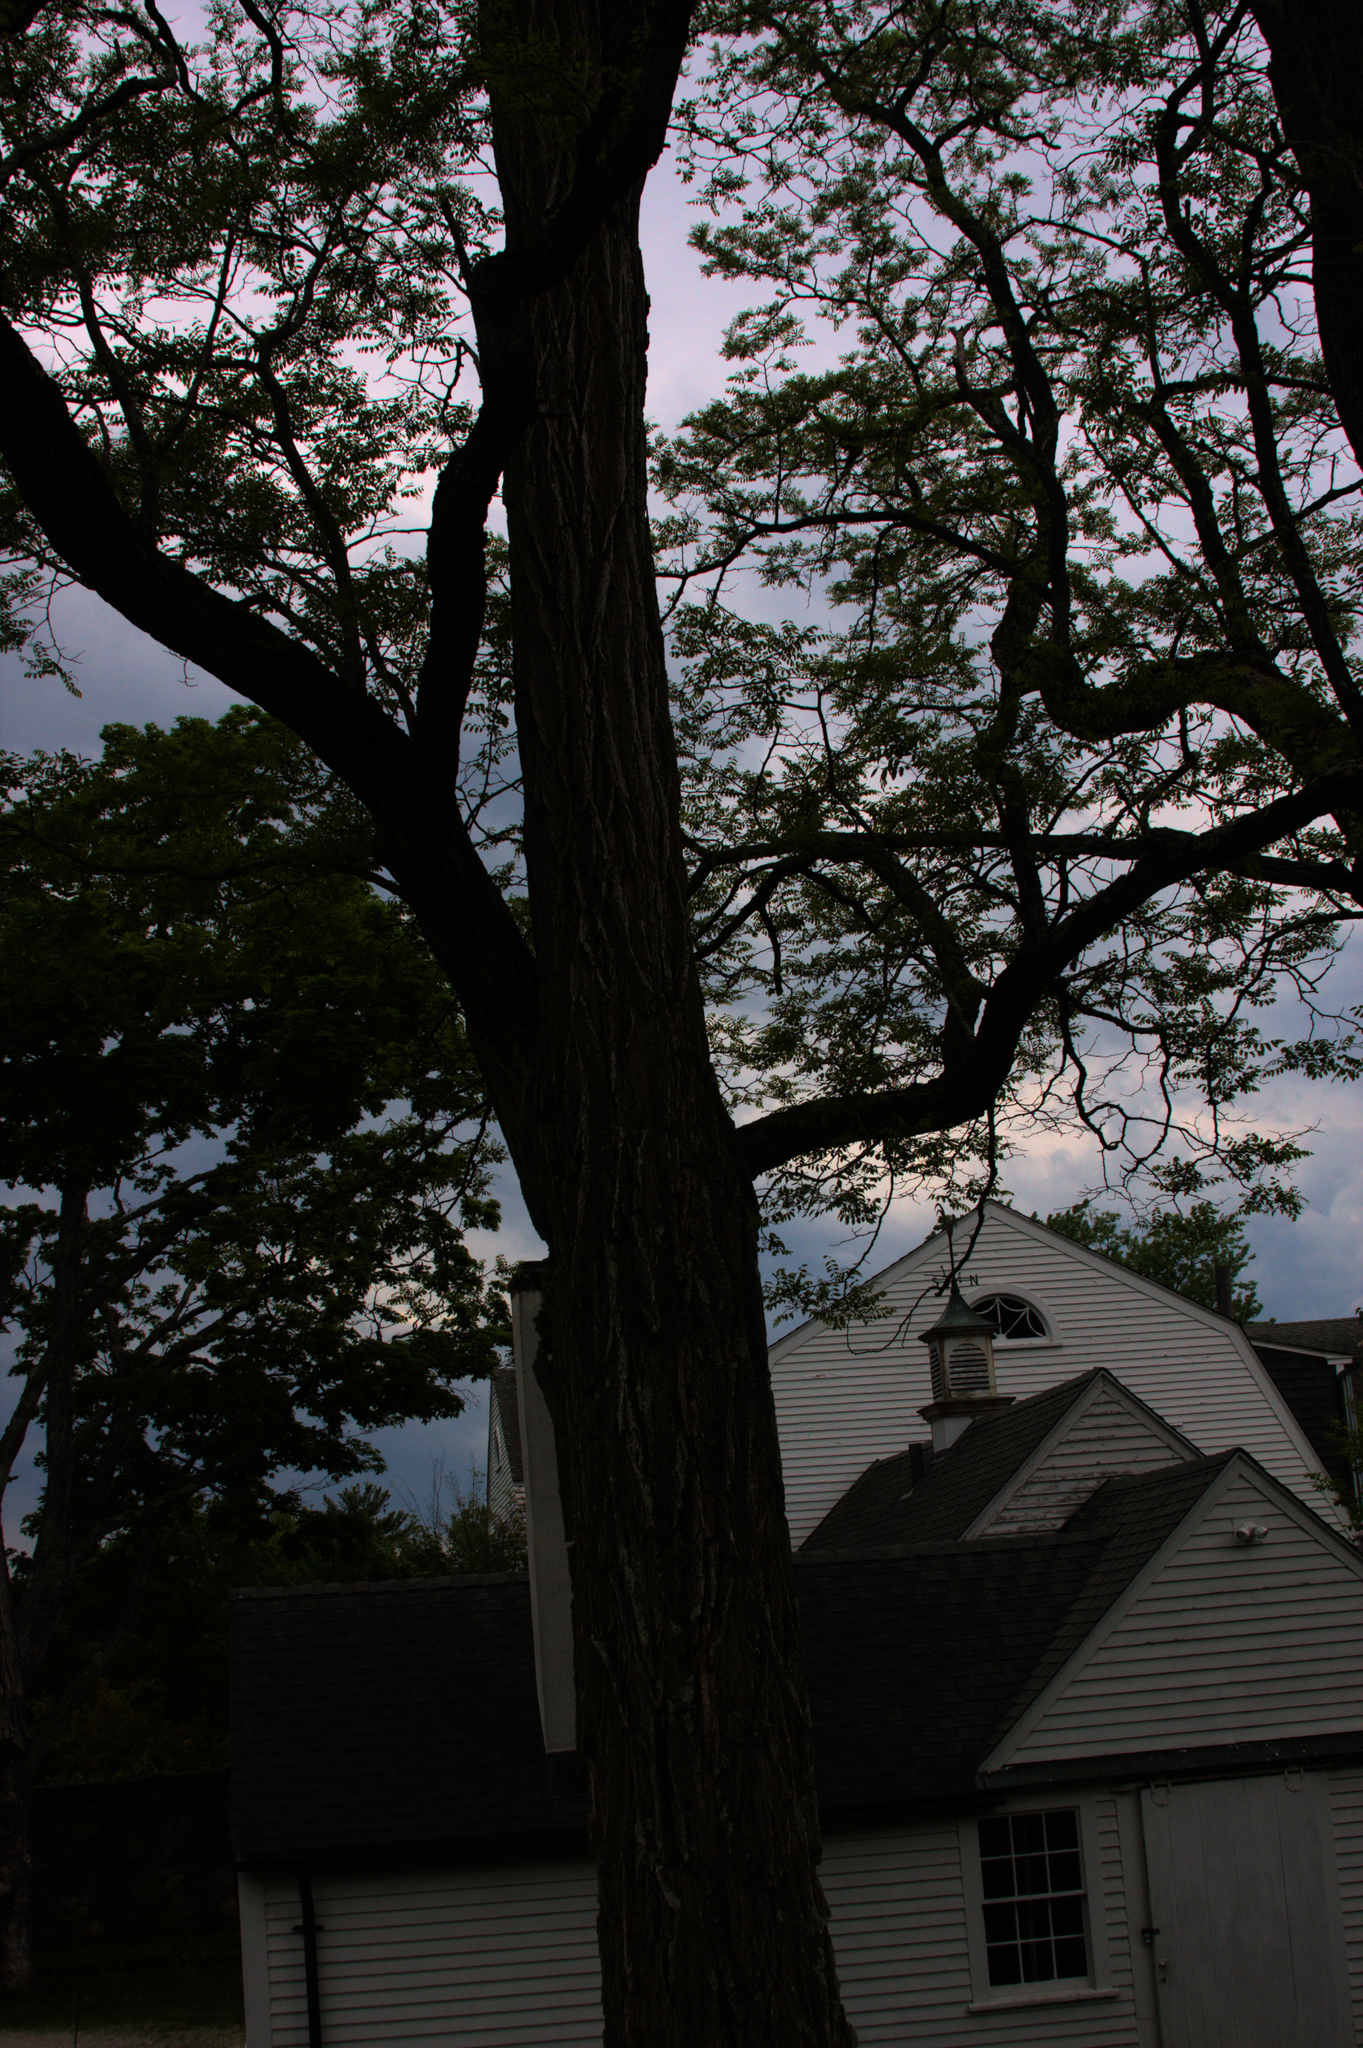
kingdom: Plantae
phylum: Tracheophyta
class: Magnoliopsida
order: Fabales
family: Fabaceae
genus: Robinia
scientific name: Robinia pseudoacacia
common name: Black locust
